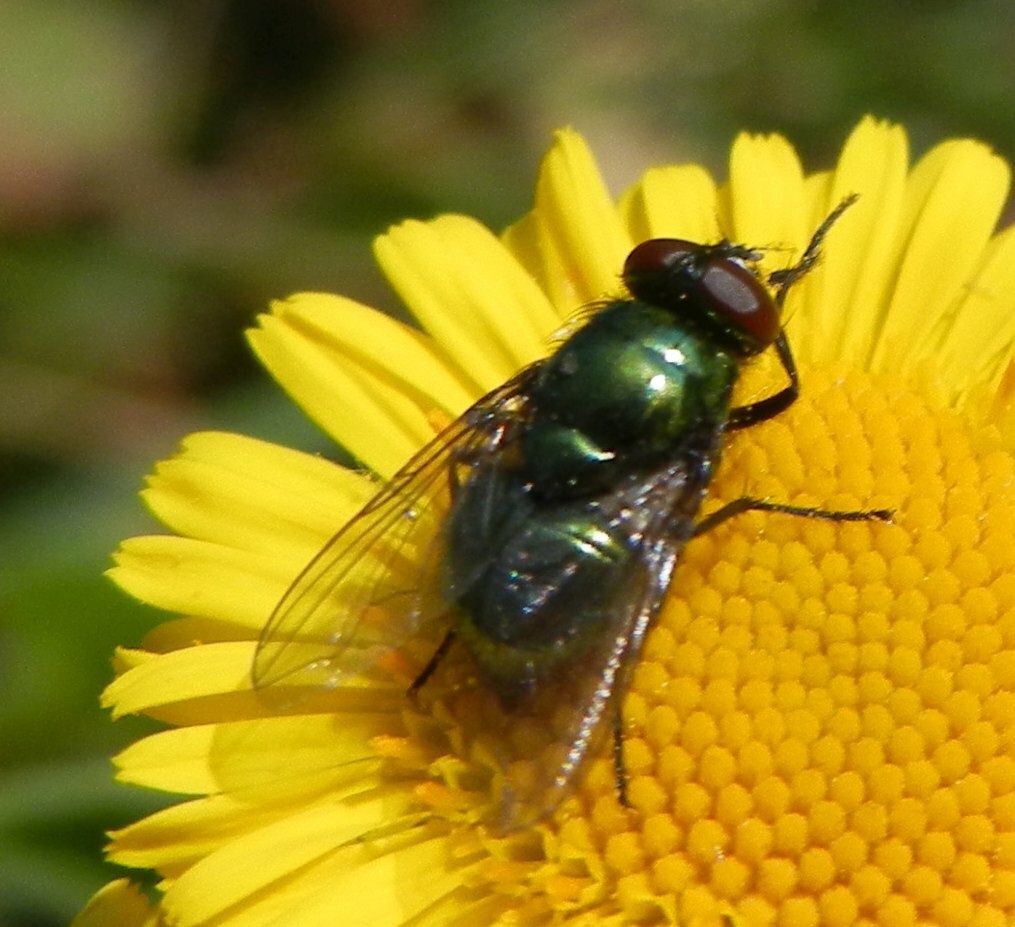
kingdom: Animalia
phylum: Arthropoda
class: Insecta
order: Diptera
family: Muscidae
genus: Neomyia
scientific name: Neomyia cornicina
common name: House fly
